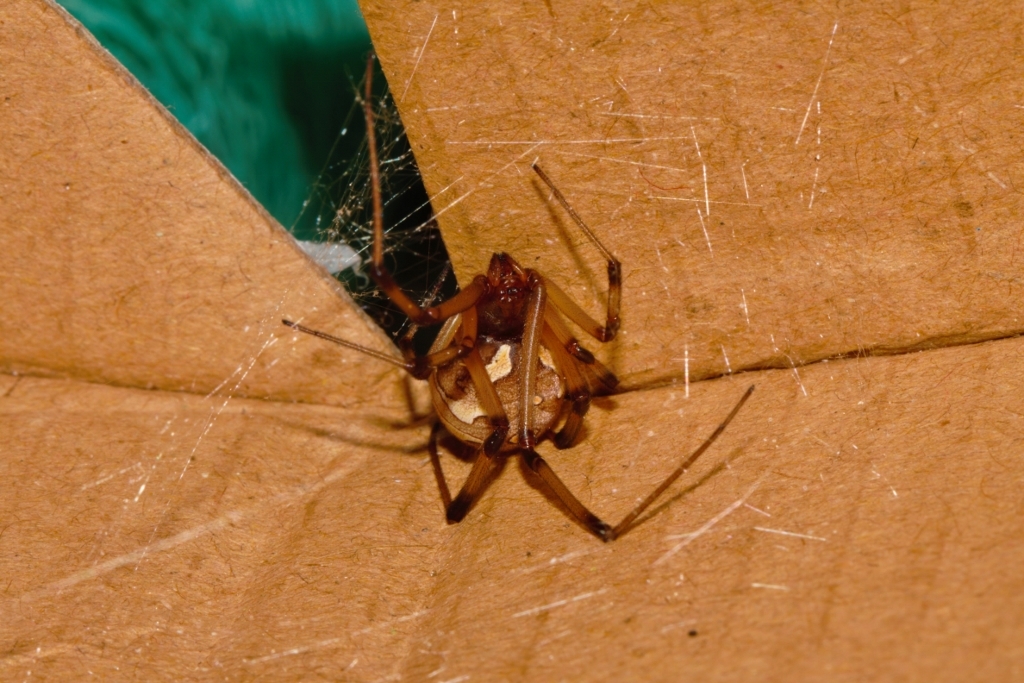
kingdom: Animalia
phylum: Arthropoda
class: Arachnida
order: Araneae
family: Theridiidae
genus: Latrodectus
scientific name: Latrodectus geometricus
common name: Brown widow spider
